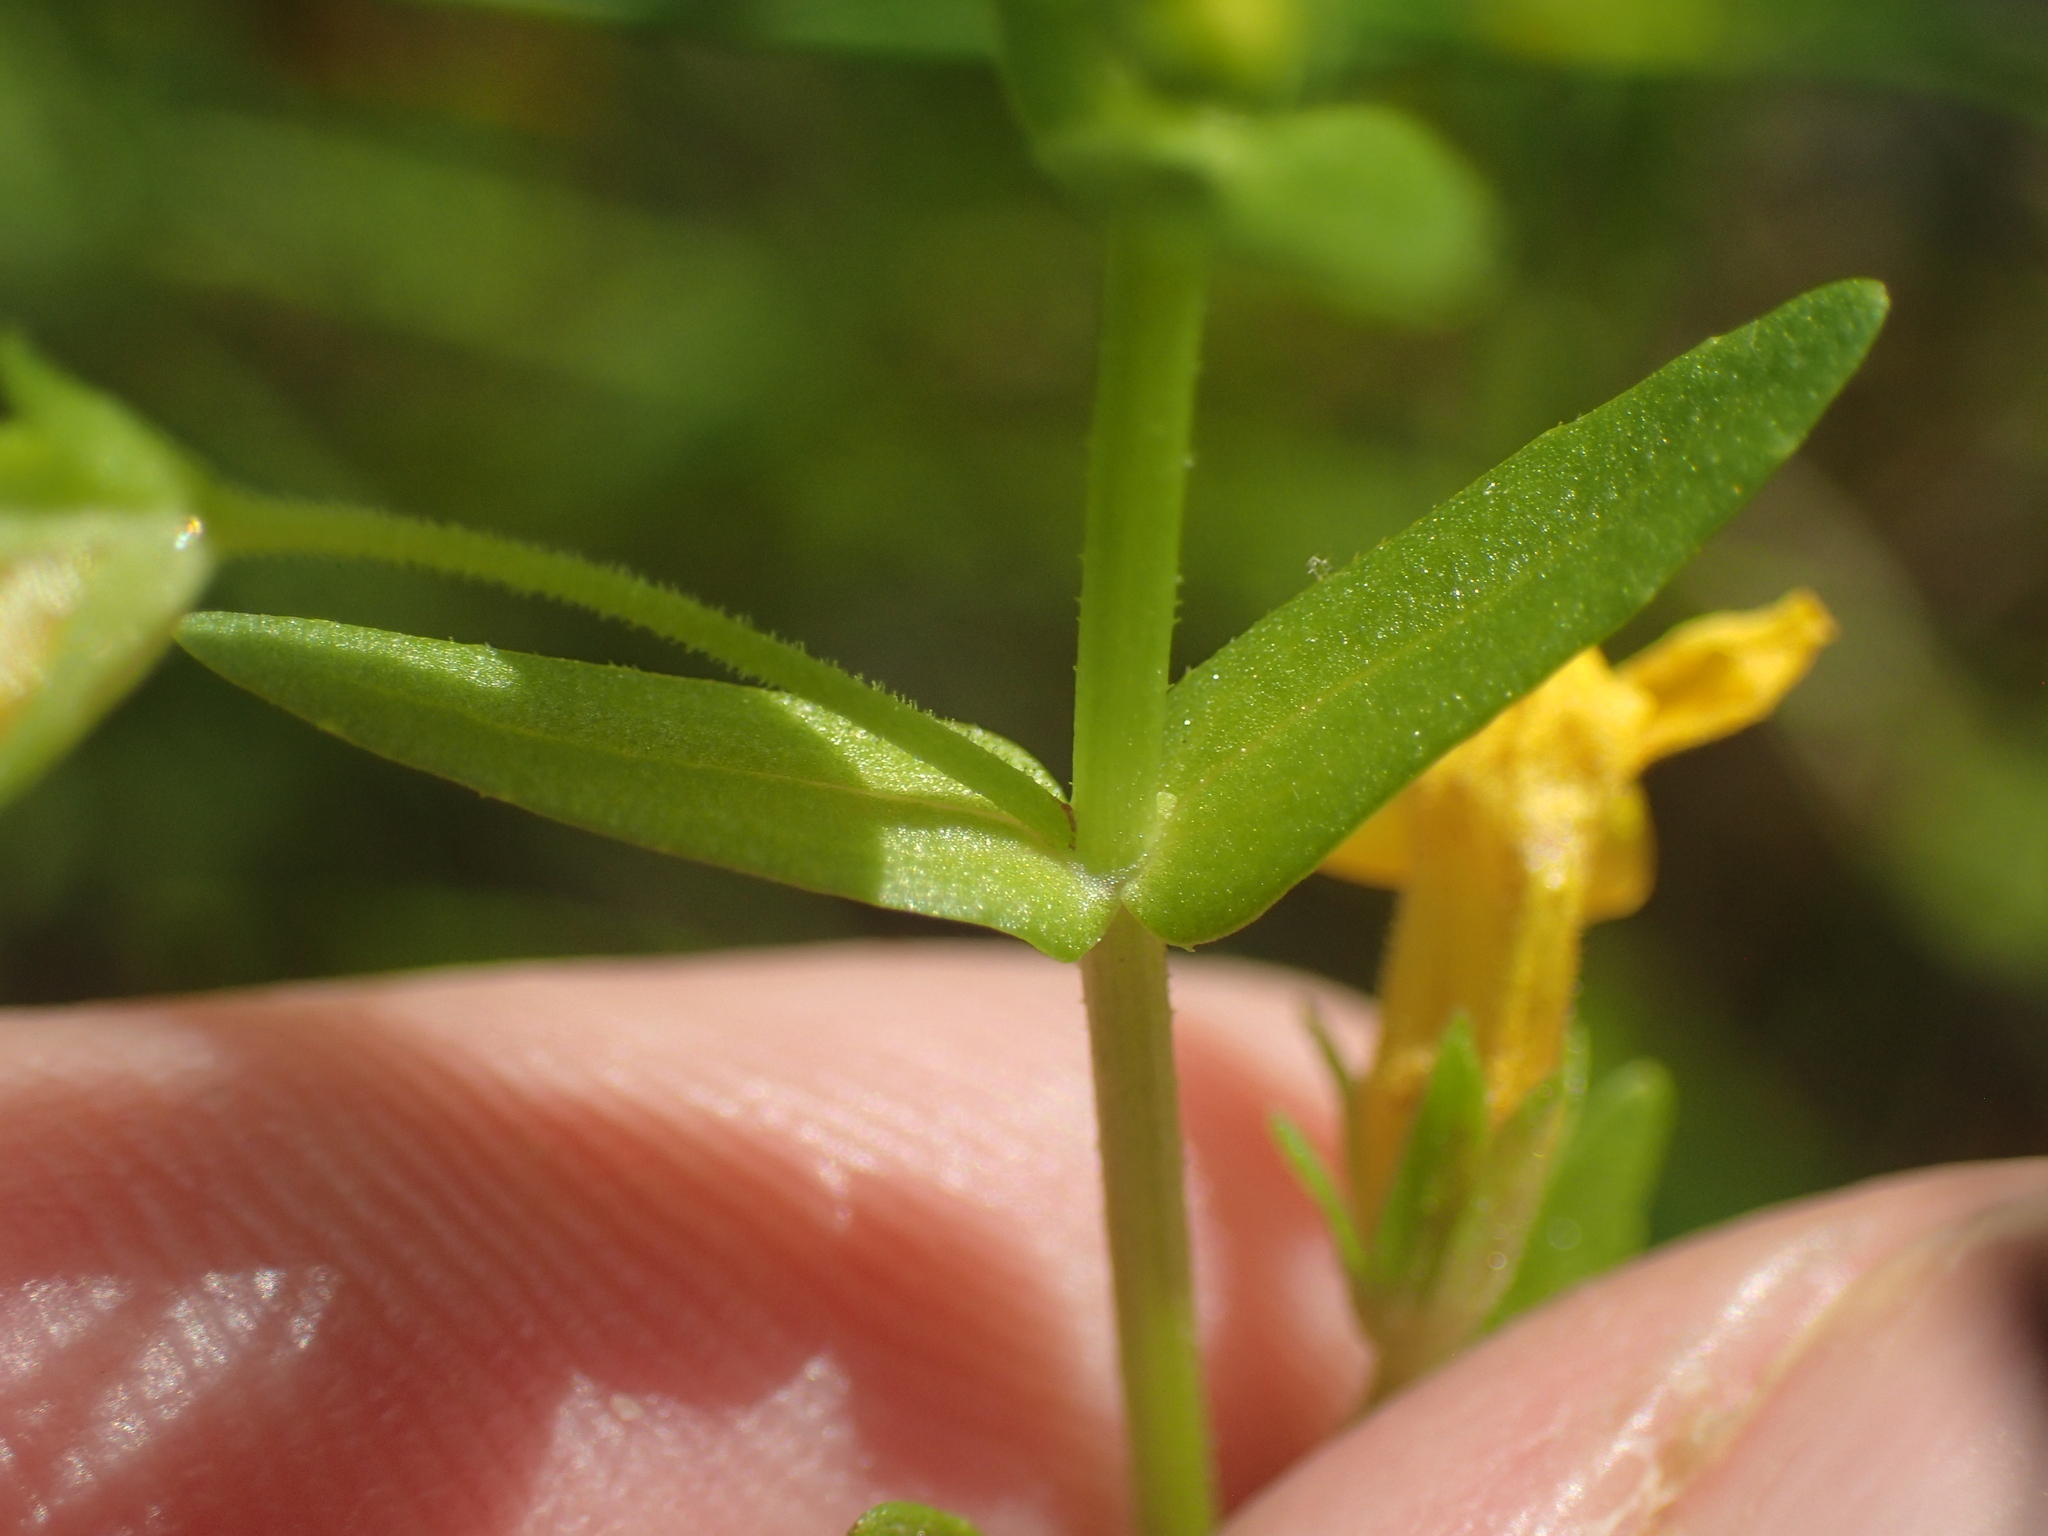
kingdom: Plantae
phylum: Tracheophyta
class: Magnoliopsida
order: Lamiales
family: Plantaginaceae
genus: Gratiola
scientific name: Gratiola lutea
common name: Golden hedge-hyssop
